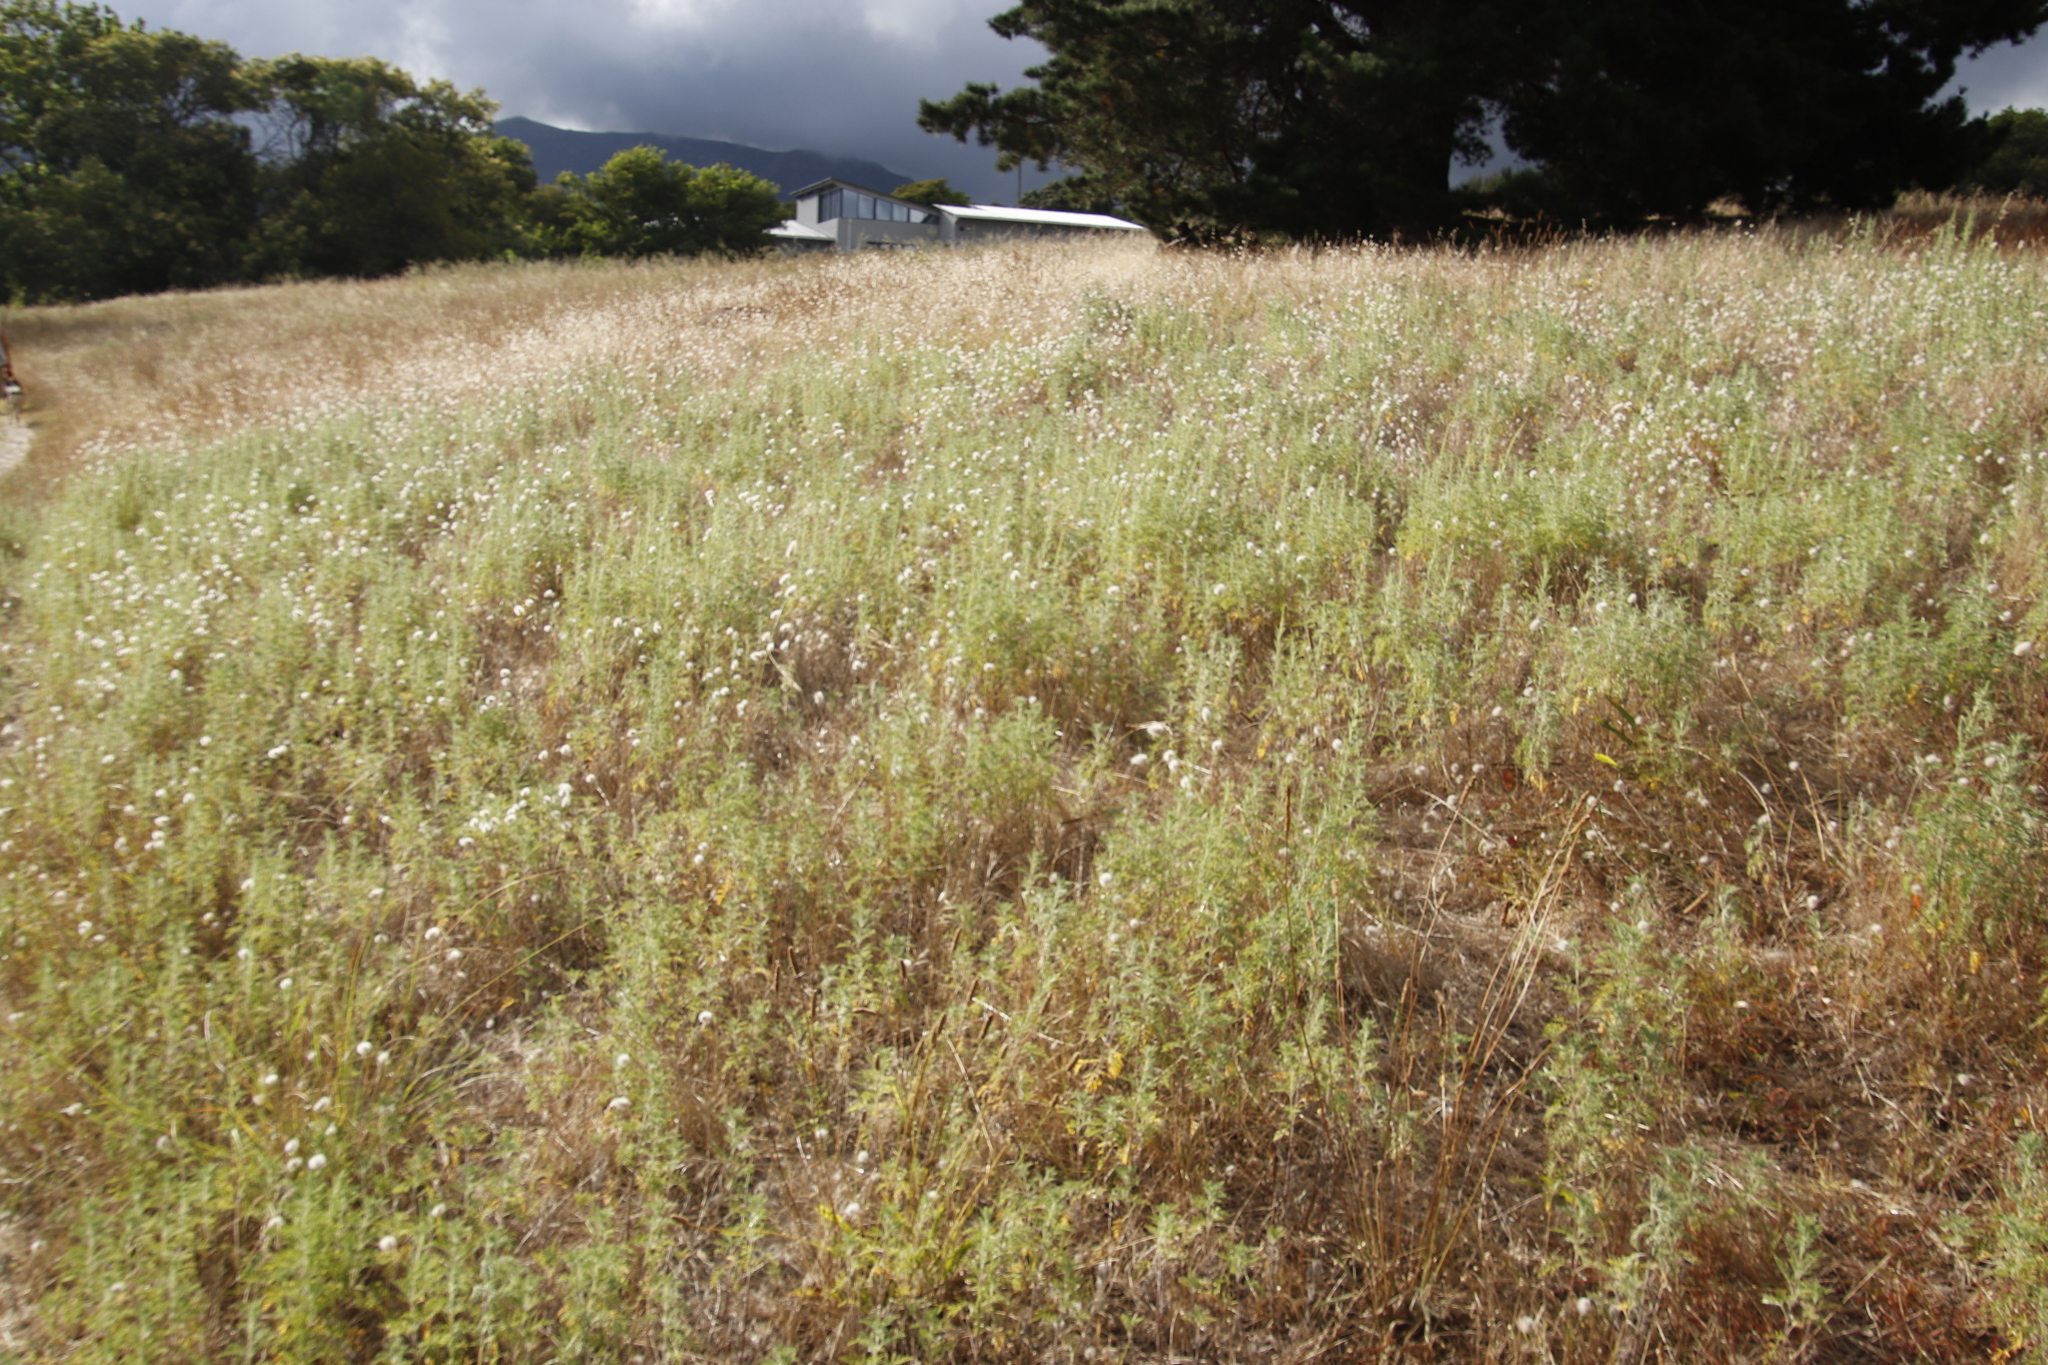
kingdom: Plantae
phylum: Tracheophyta
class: Liliopsida
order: Poales
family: Poaceae
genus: Lagurus
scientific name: Lagurus ovatus
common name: Hare's-tail
